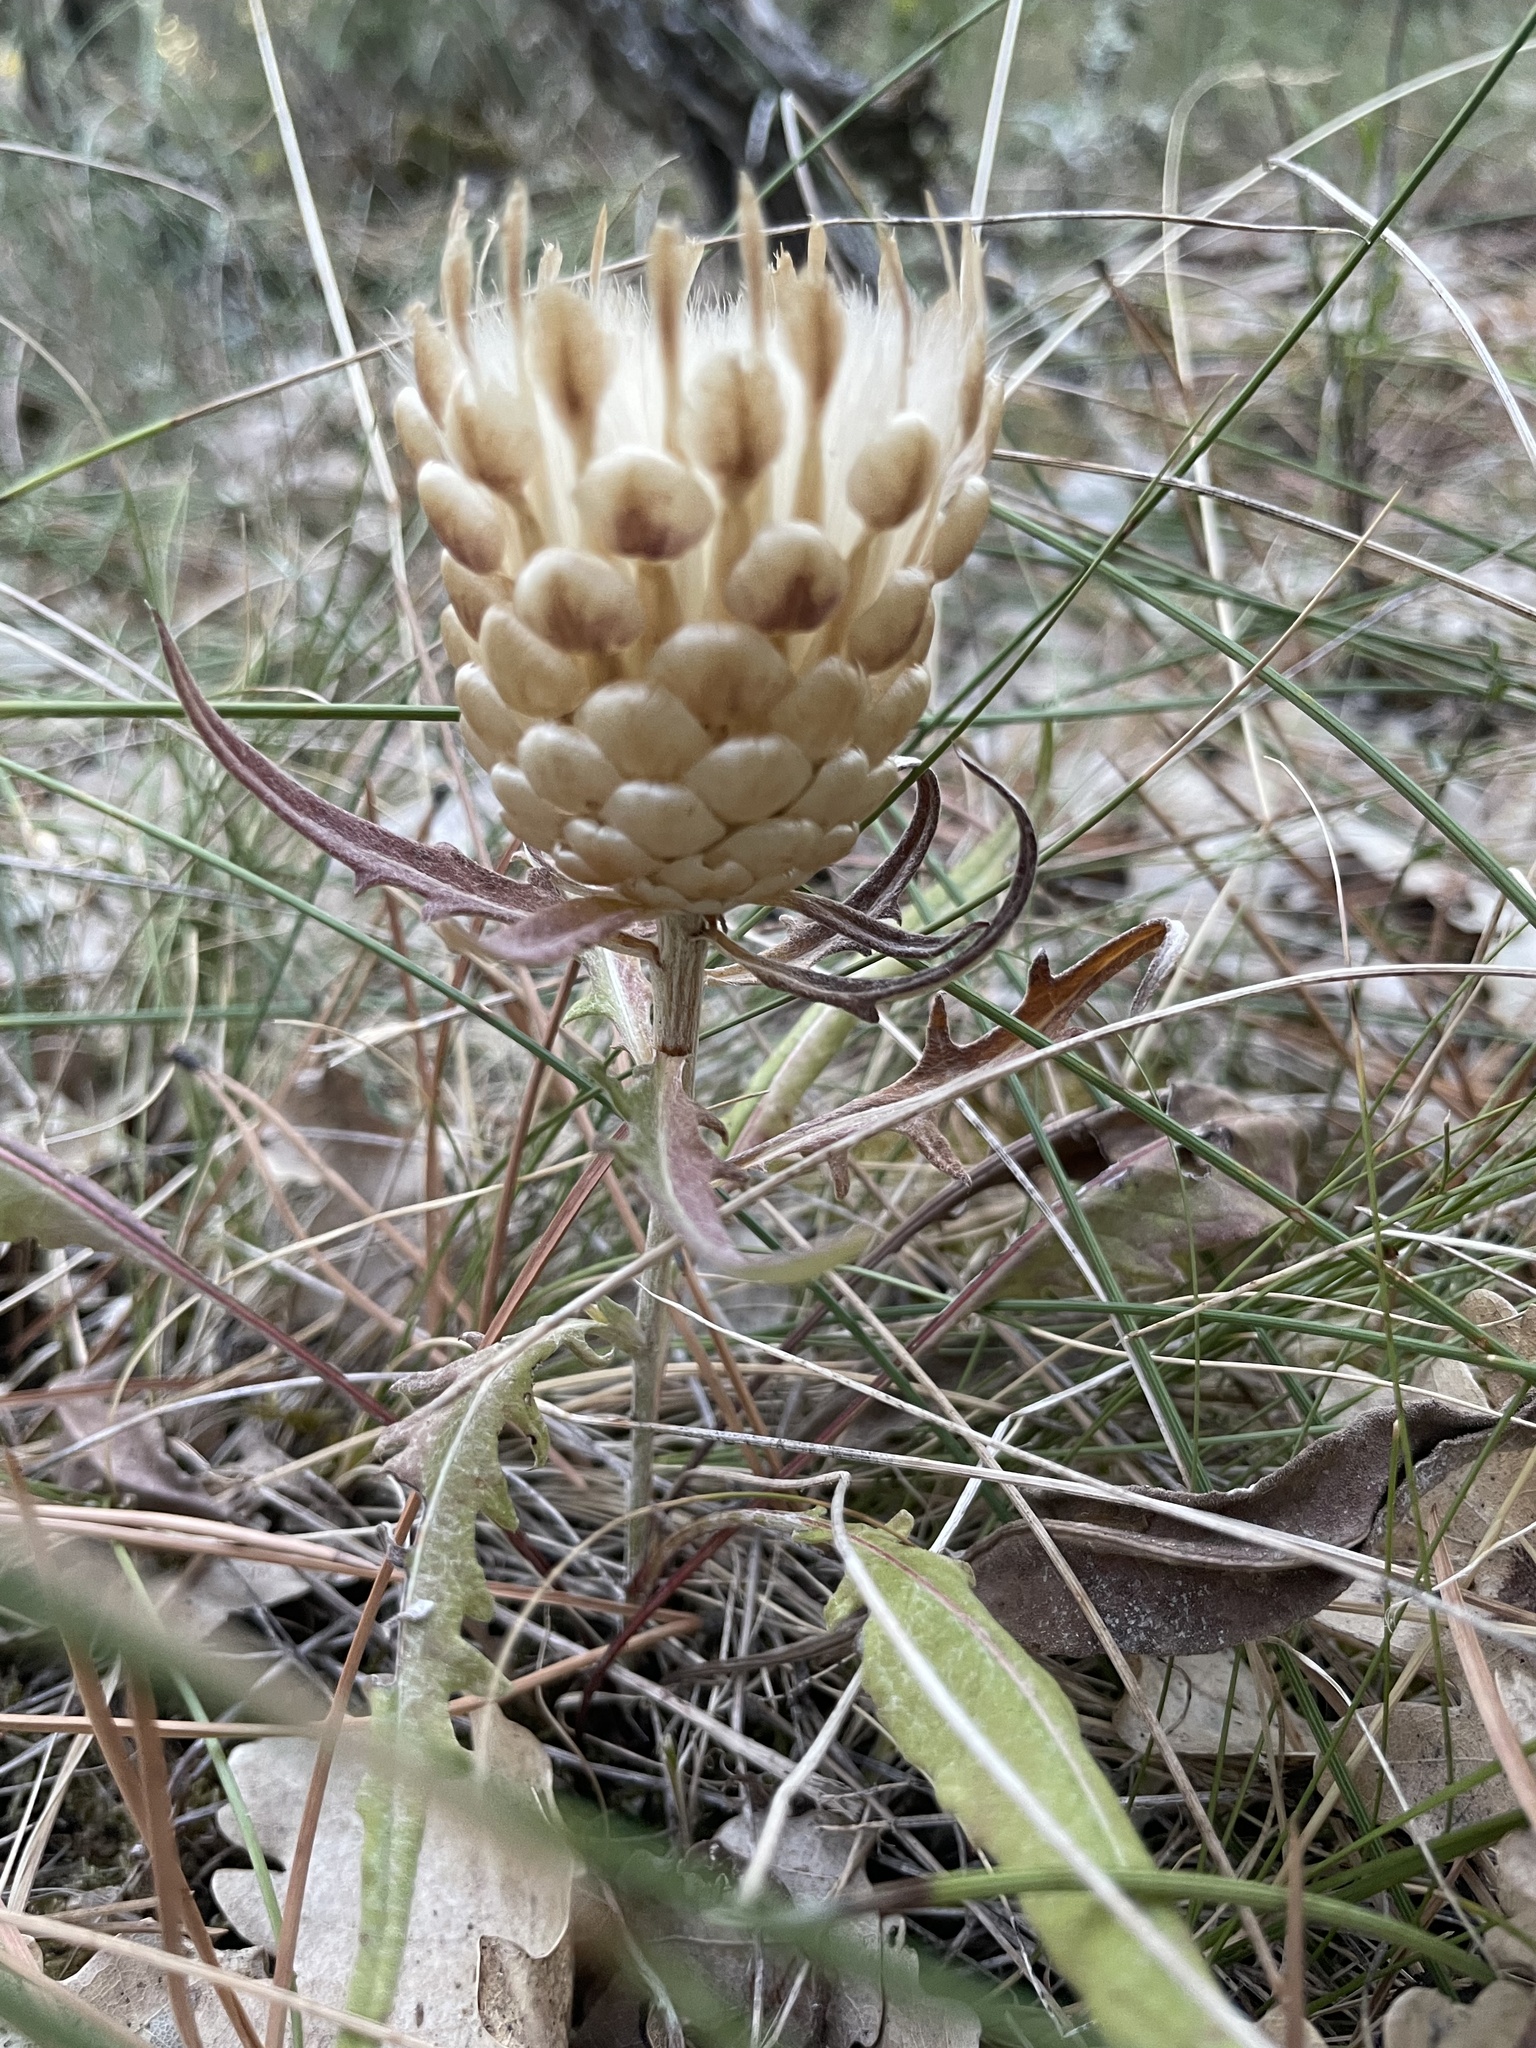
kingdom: Plantae
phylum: Tracheophyta
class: Magnoliopsida
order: Asterales
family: Asteraceae
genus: Leuzea
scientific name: Leuzea conifera
